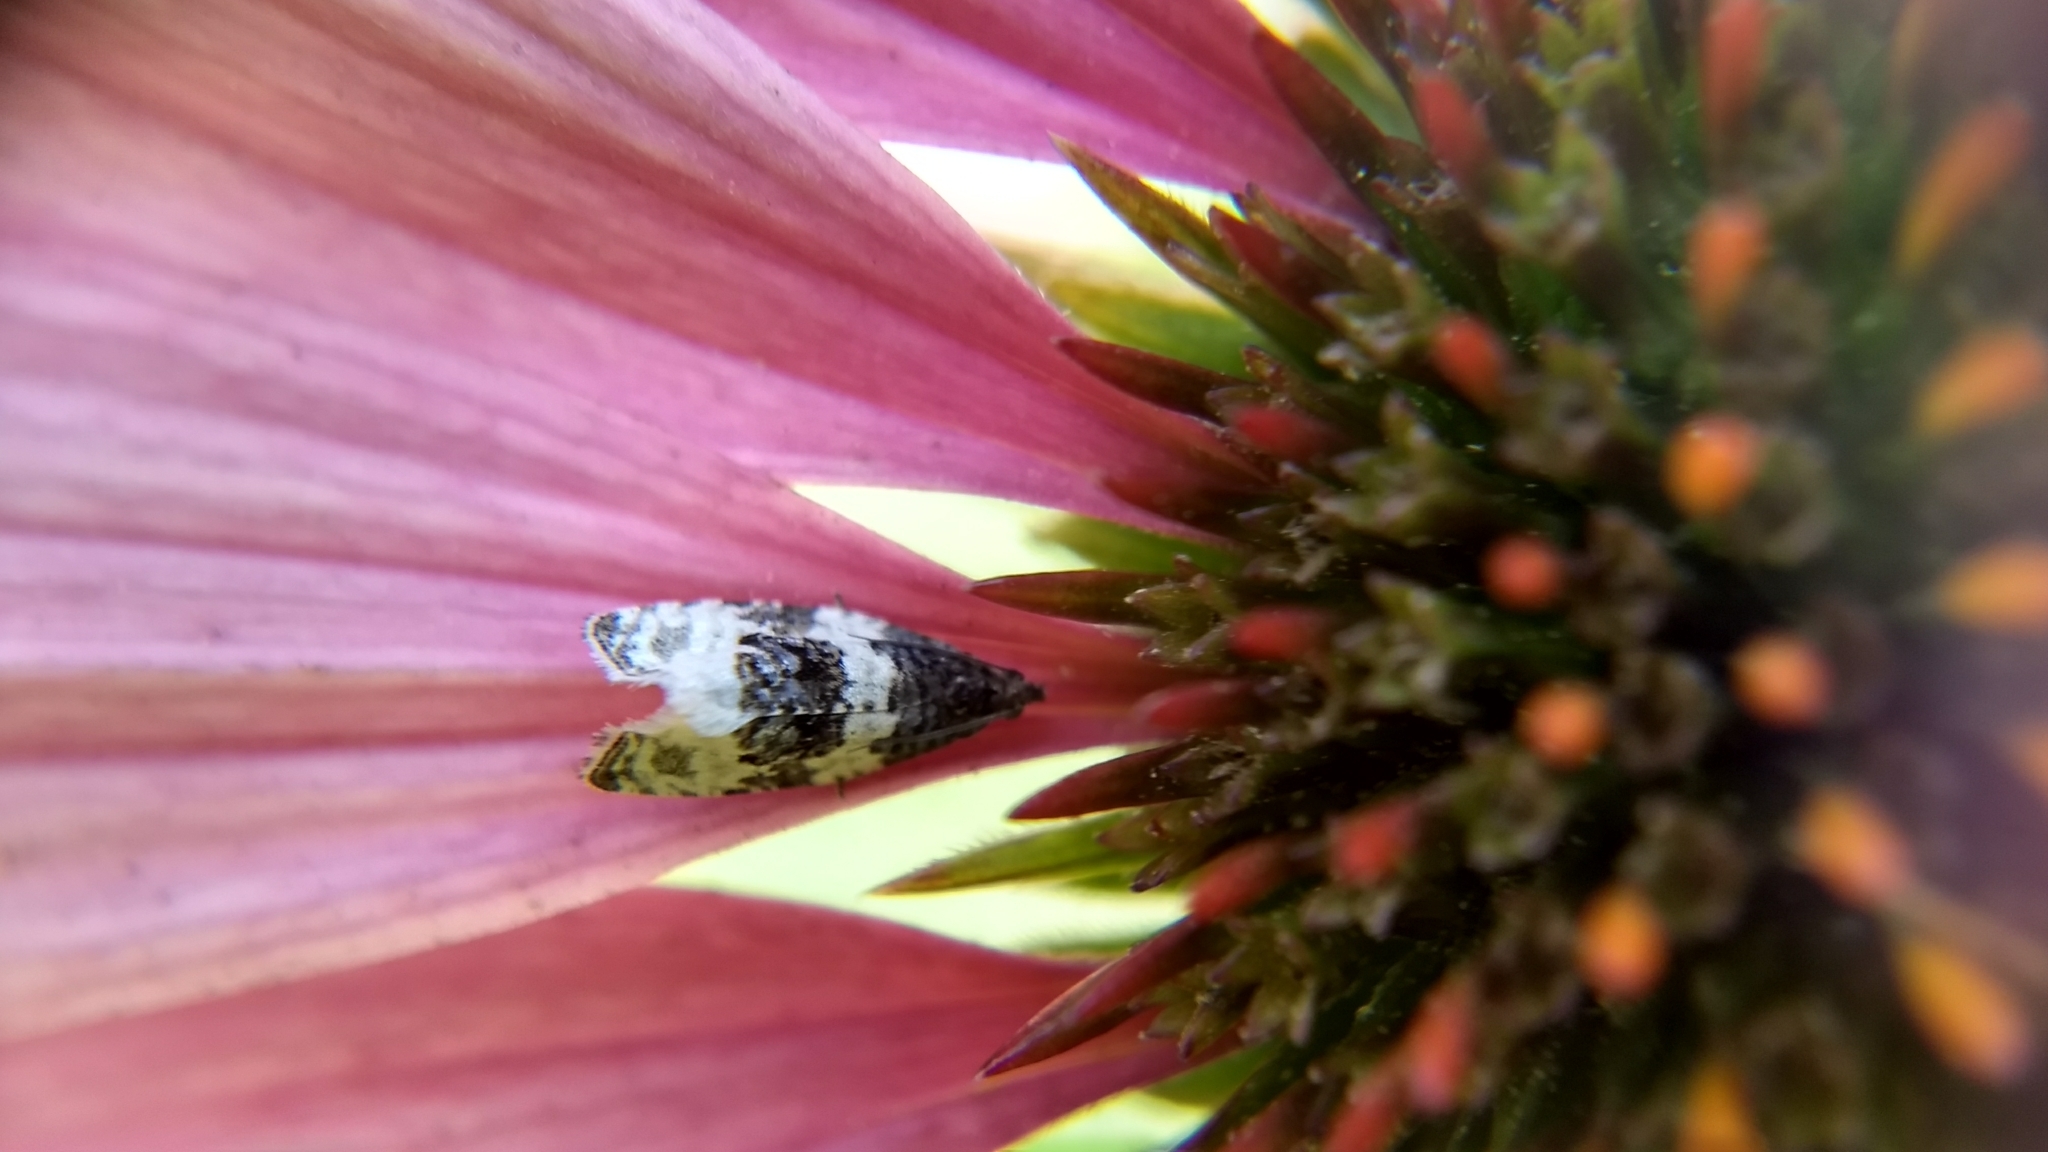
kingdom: Animalia
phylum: Arthropoda
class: Insecta
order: Lepidoptera
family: Tortricidae
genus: Olethreutes
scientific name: Olethreutes bipartitana
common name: Divided olethreutes moth
